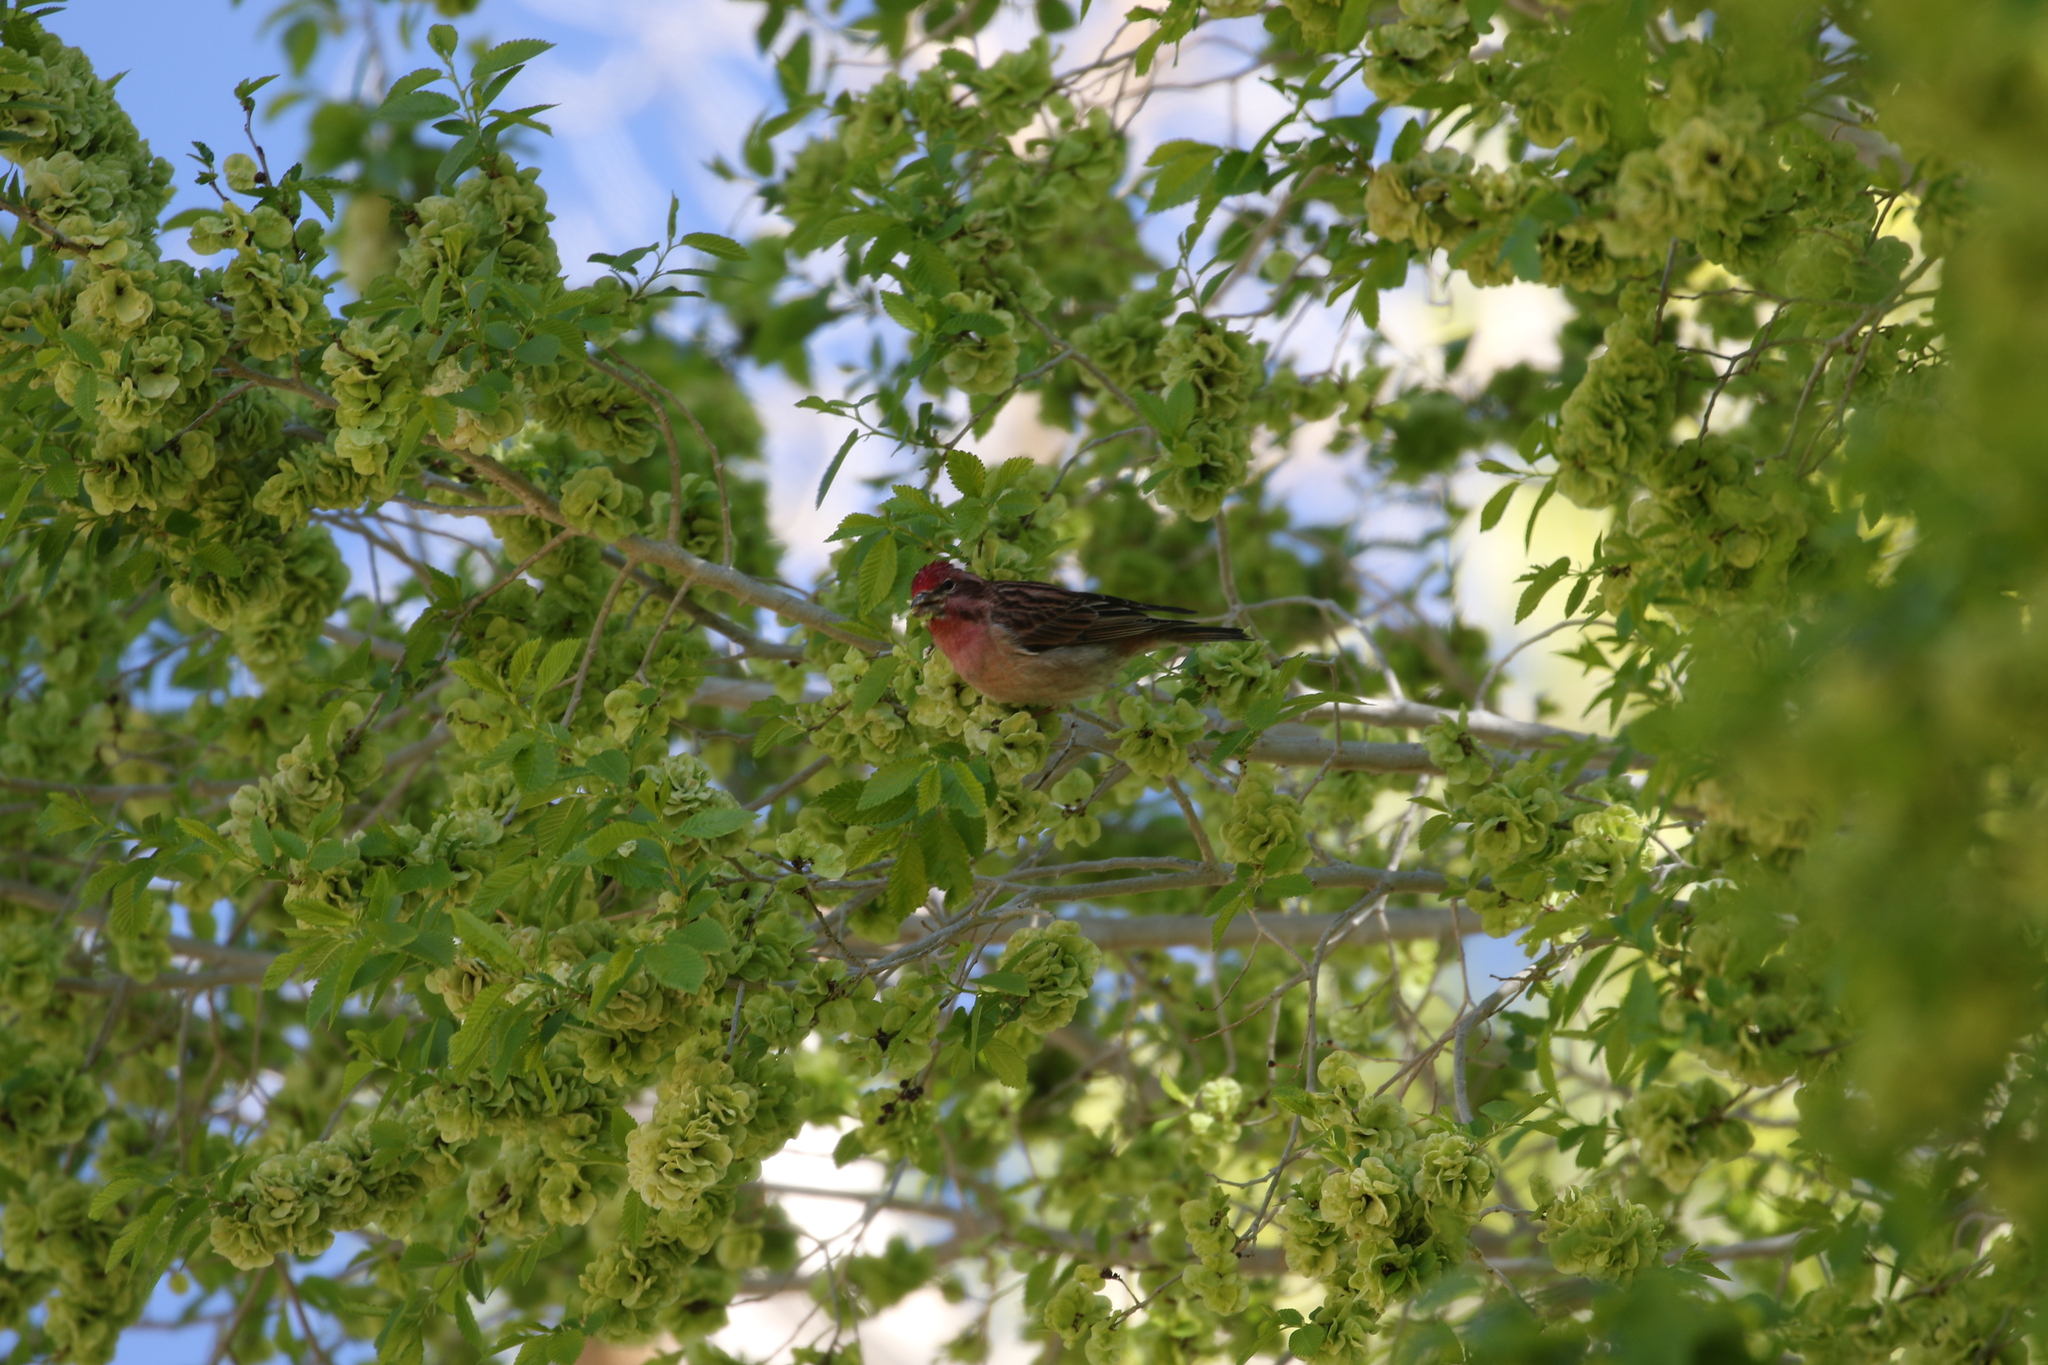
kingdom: Animalia
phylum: Chordata
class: Aves
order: Passeriformes
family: Fringillidae
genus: Haemorhous
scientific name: Haemorhous cassinii
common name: Cassin's finch
